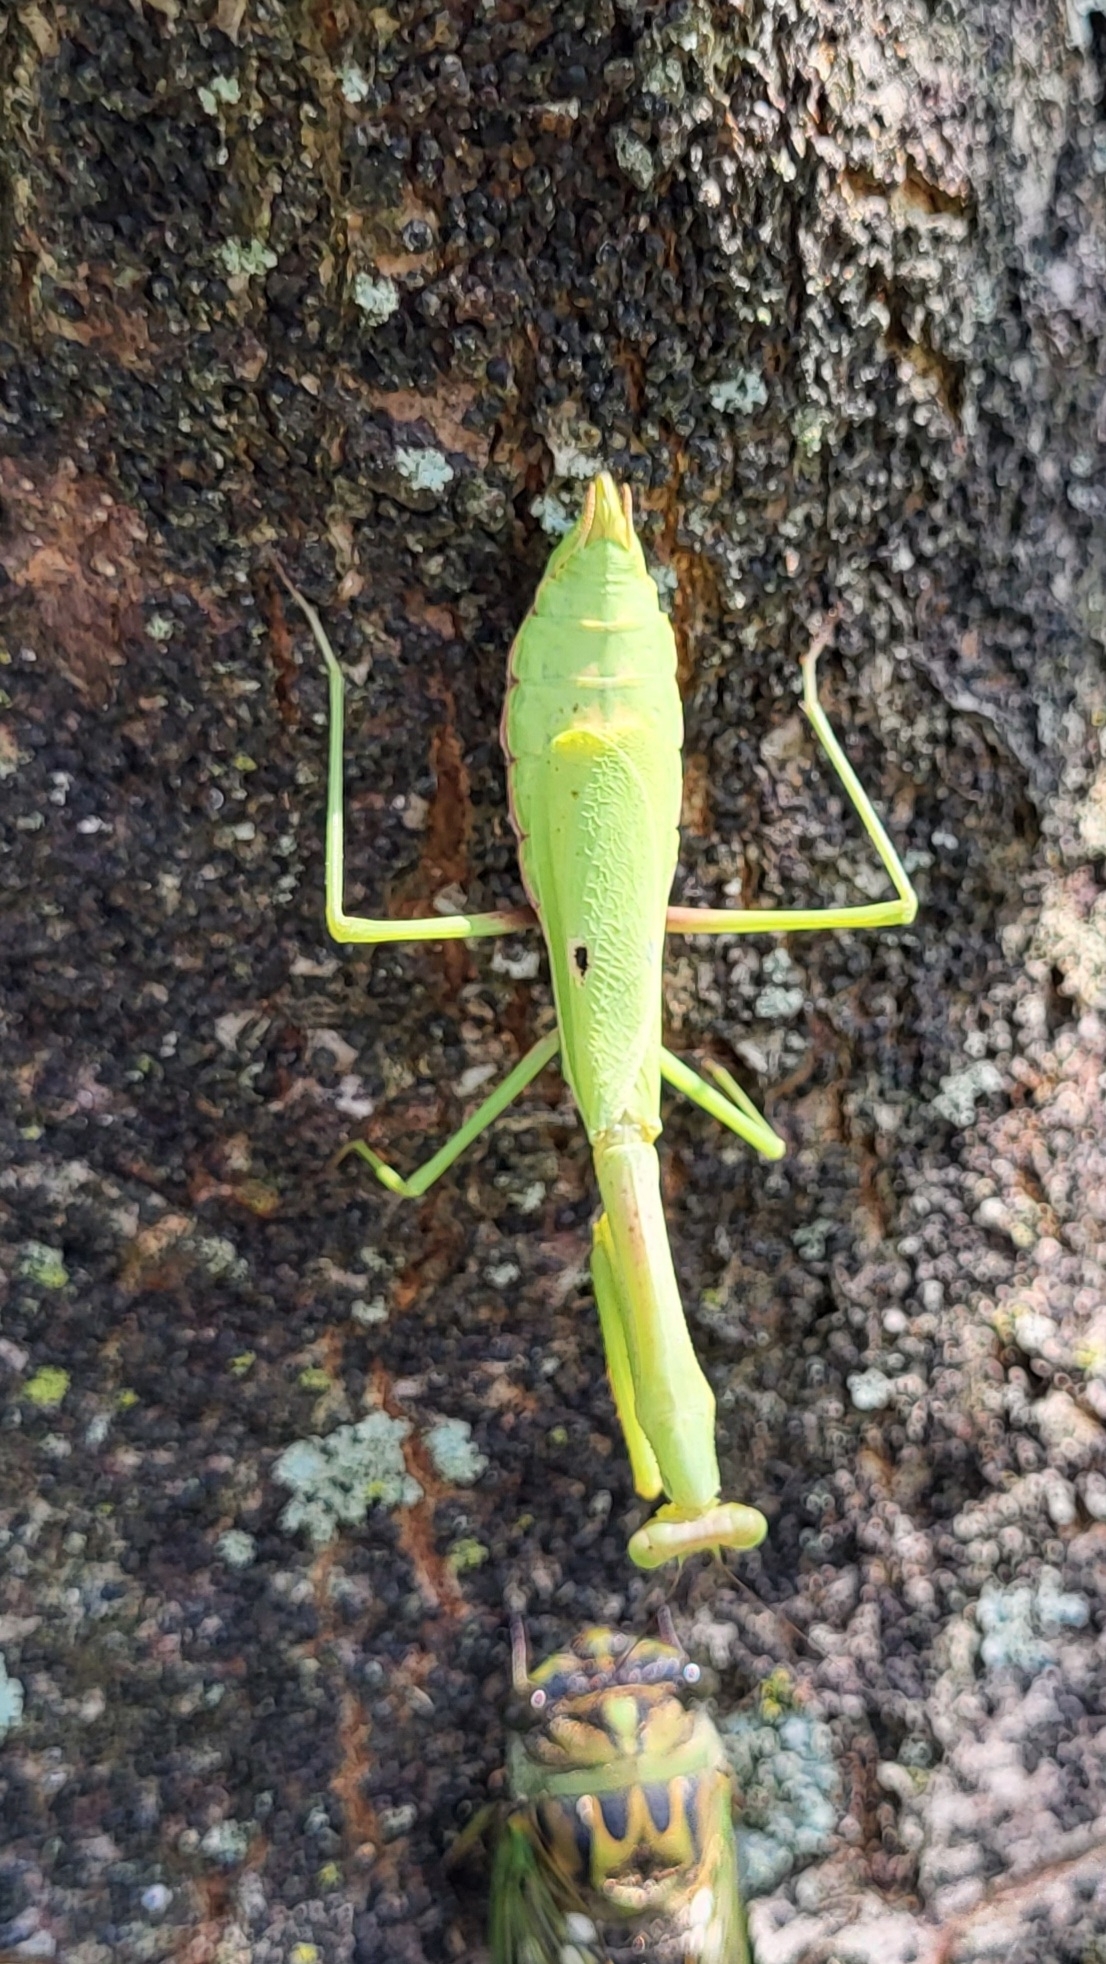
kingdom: Animalia
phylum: Arthropoda
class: Insecta
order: Mantodea
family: Mantidae
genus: Stagmomantis
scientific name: Stagmomantis carolina
